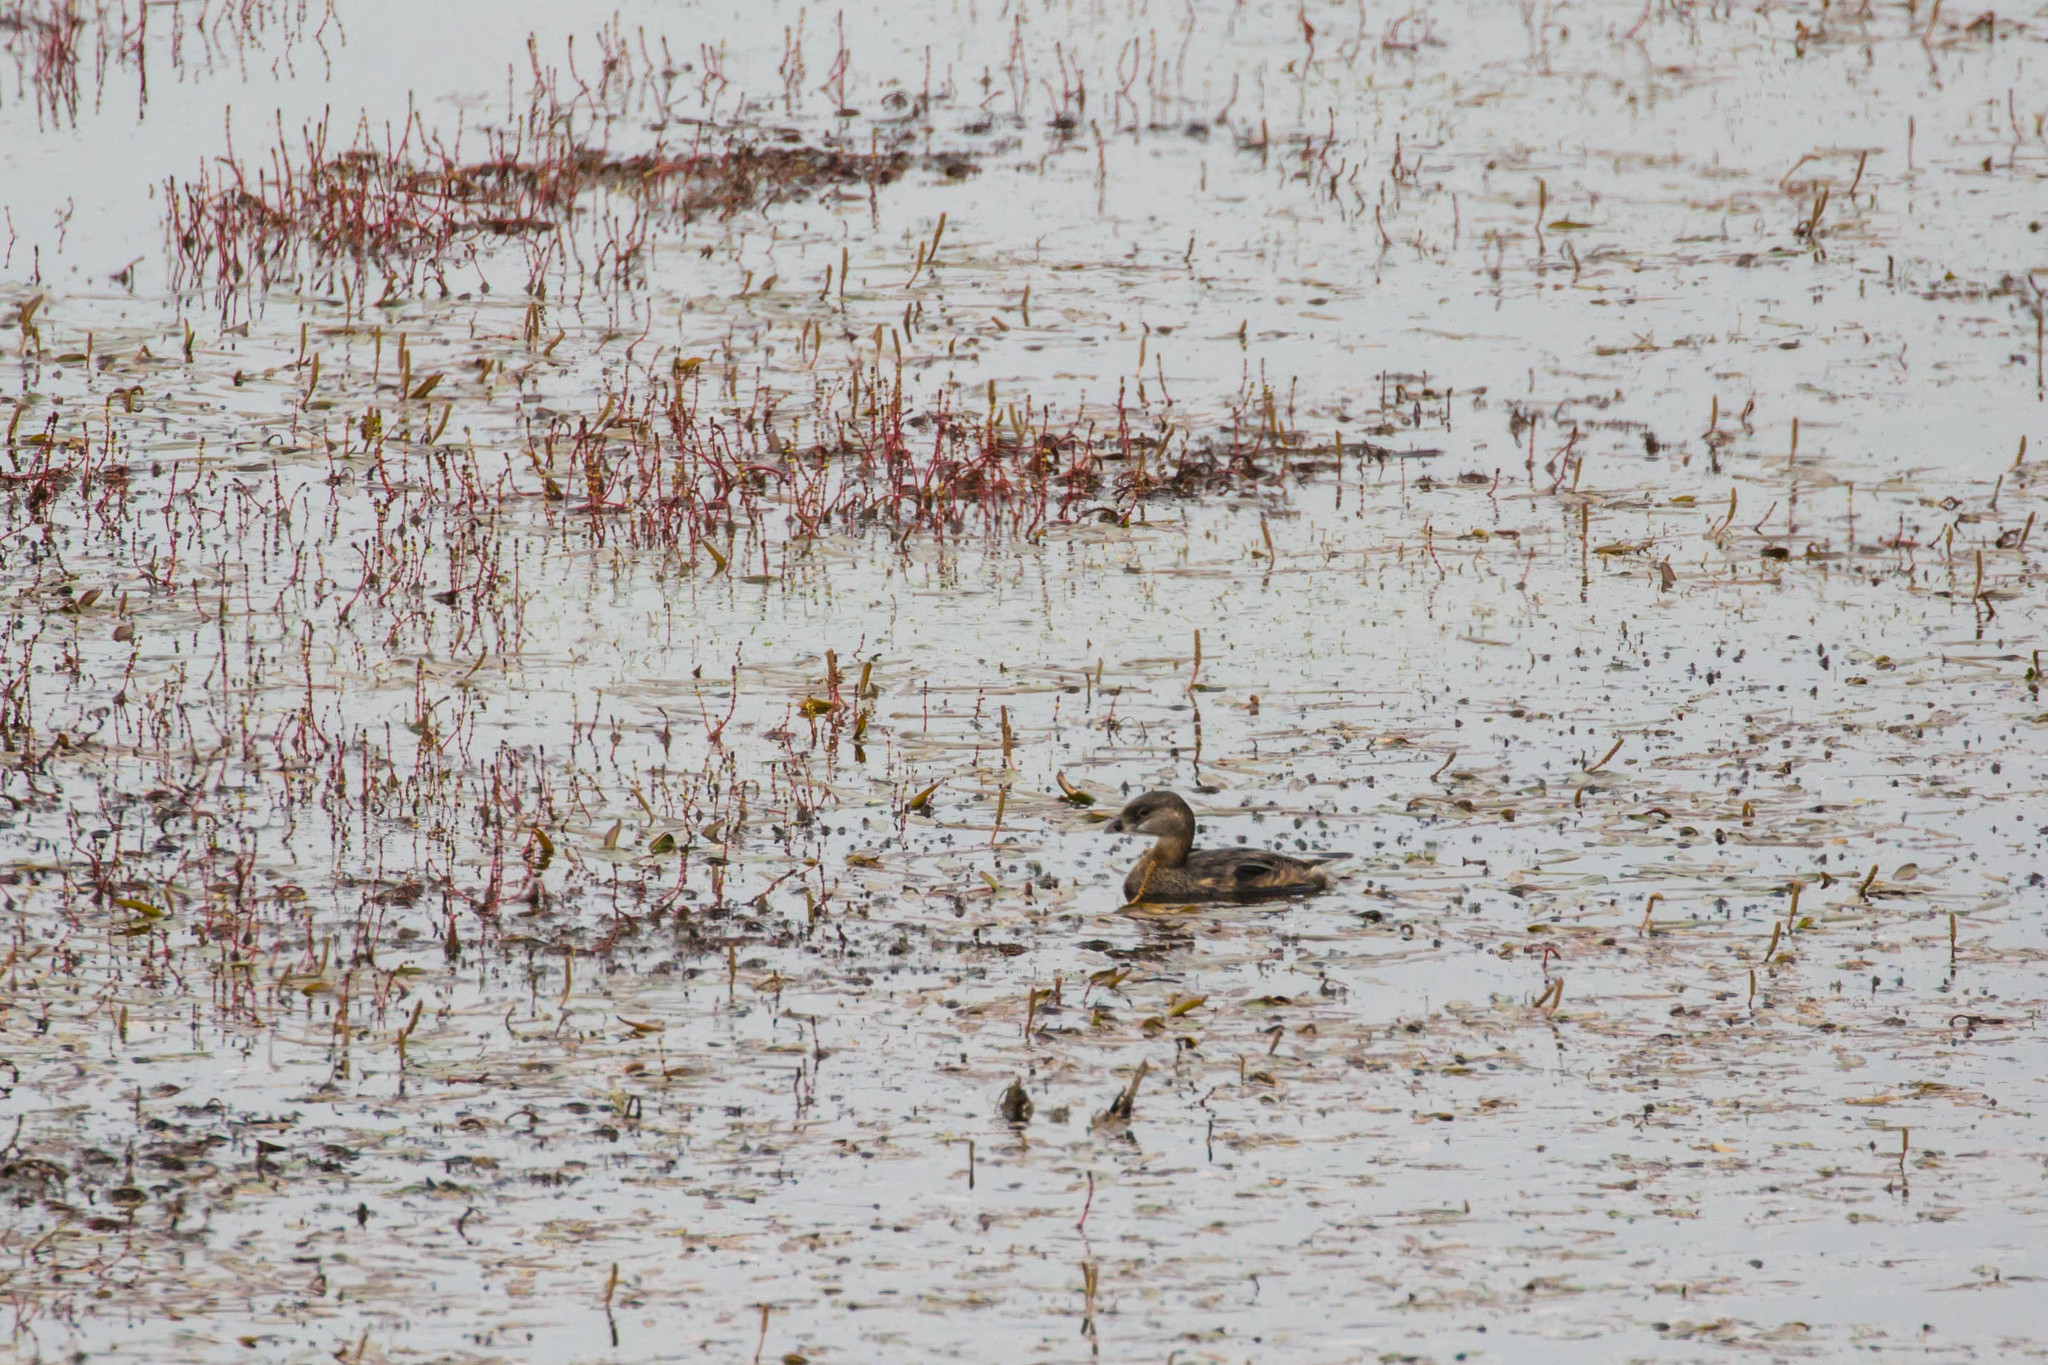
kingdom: Animalia
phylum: Chordata
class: Aves
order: Podicipediformes
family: Podicipedidae
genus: Podilymbus
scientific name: Podilymbus podiceps
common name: Pied-billed grebe
